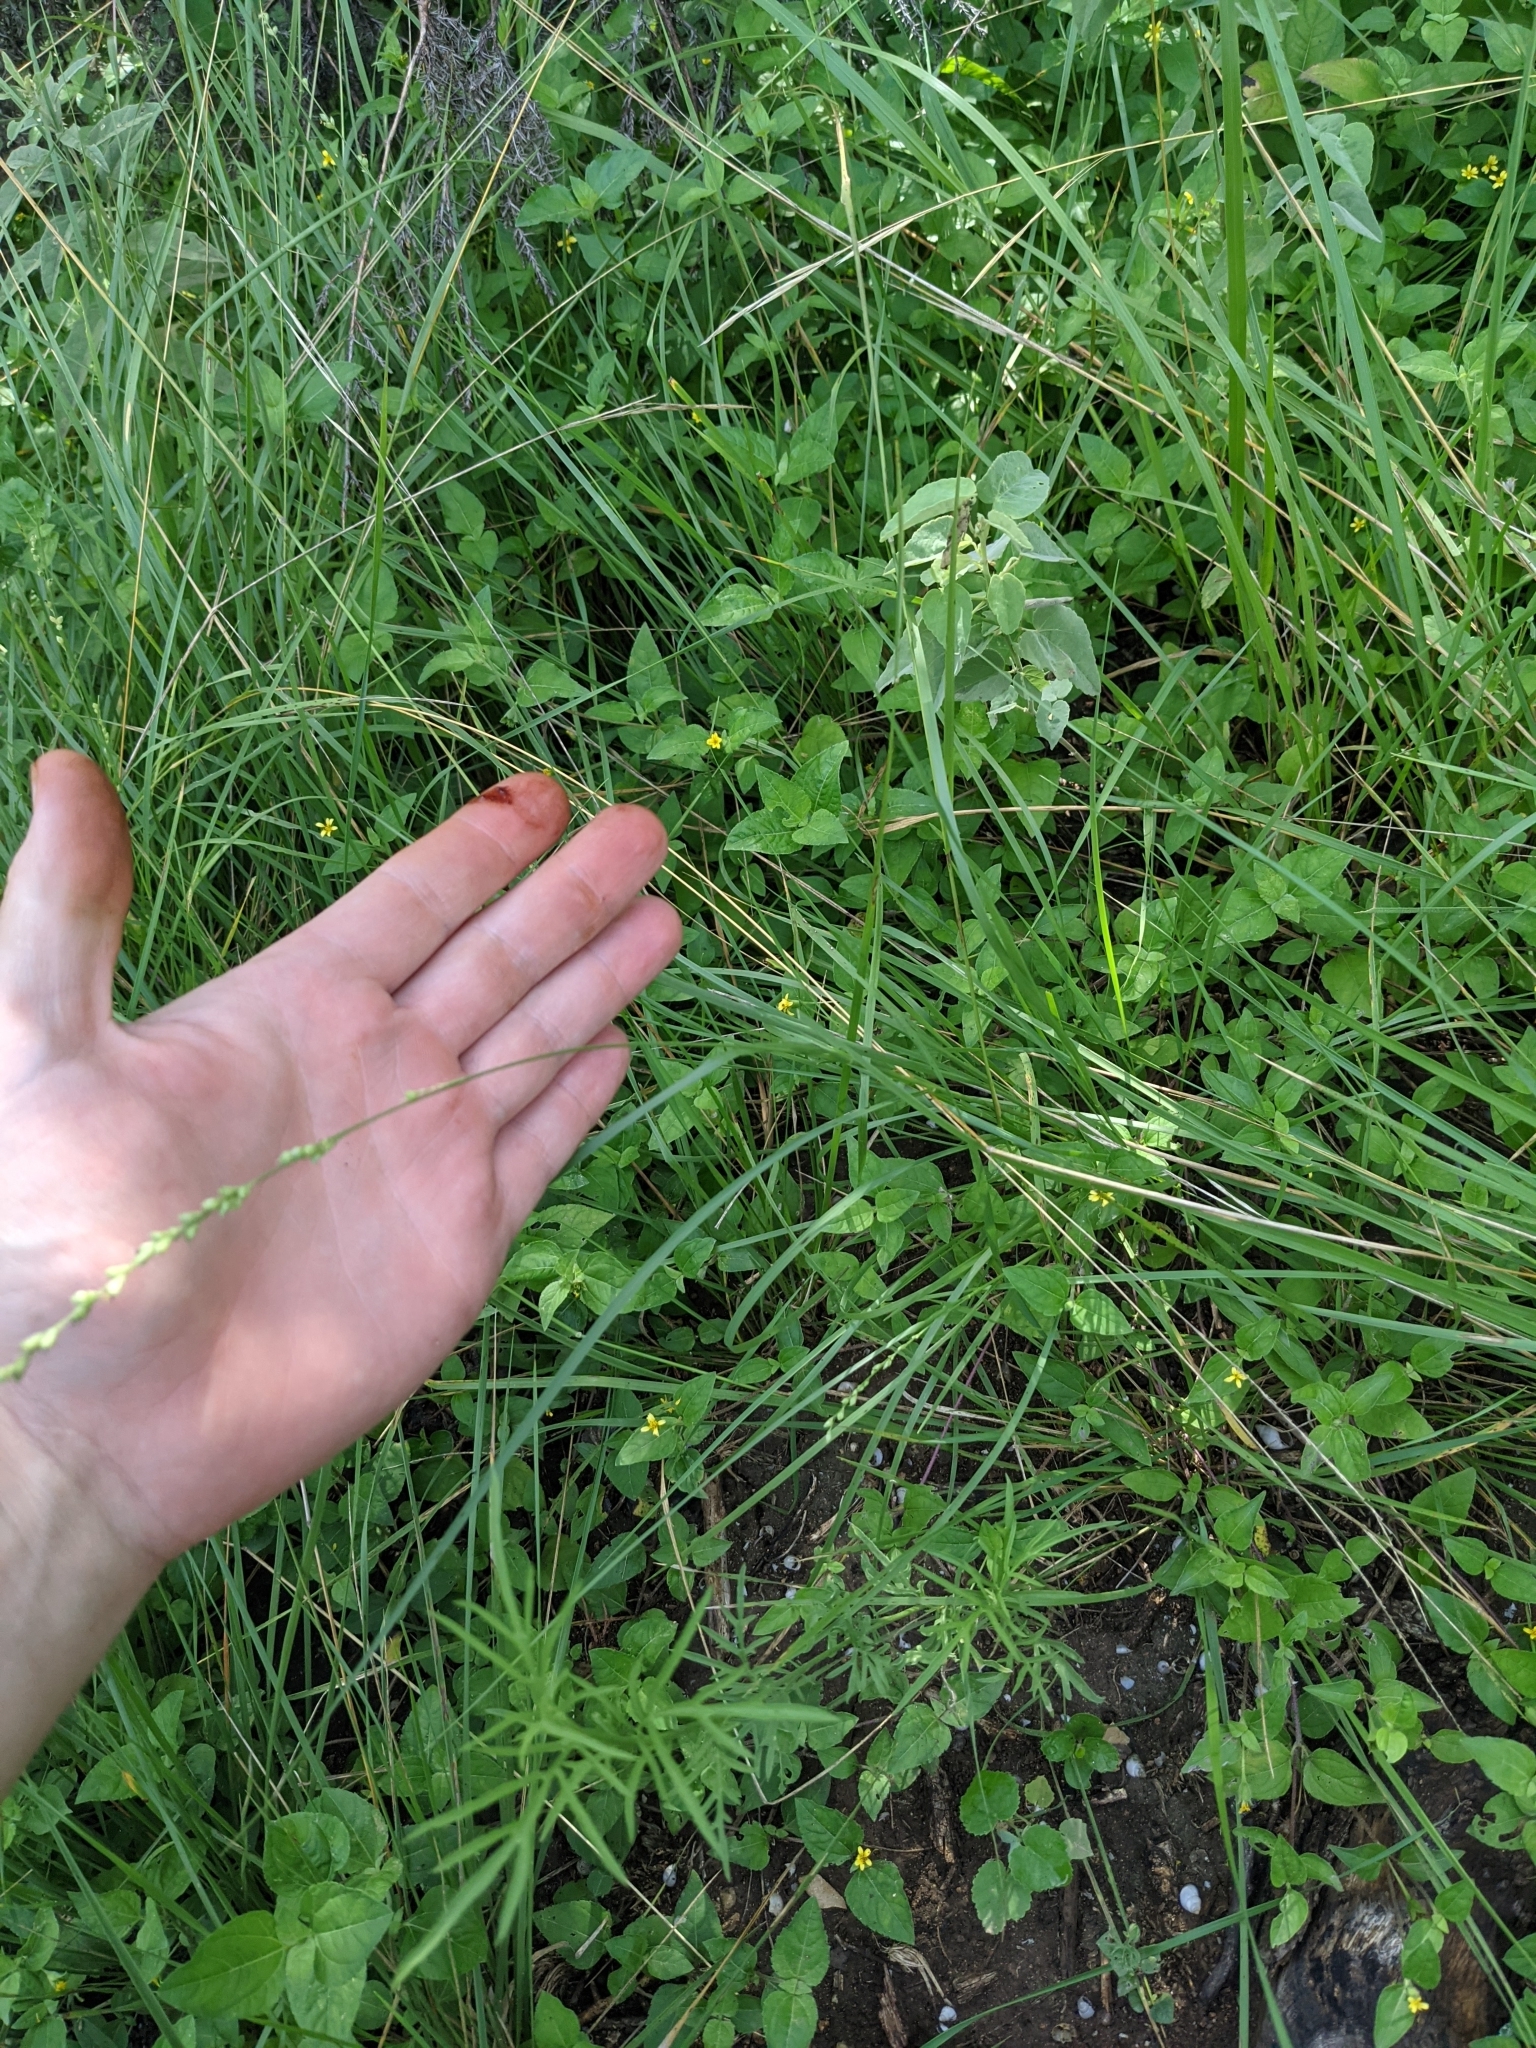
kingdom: Plantae
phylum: Tracheophyta
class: Liliopsida
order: Poales
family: Poaceae
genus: Setaria
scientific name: Setaria reverchonii
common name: Reverchon's bristle grass
